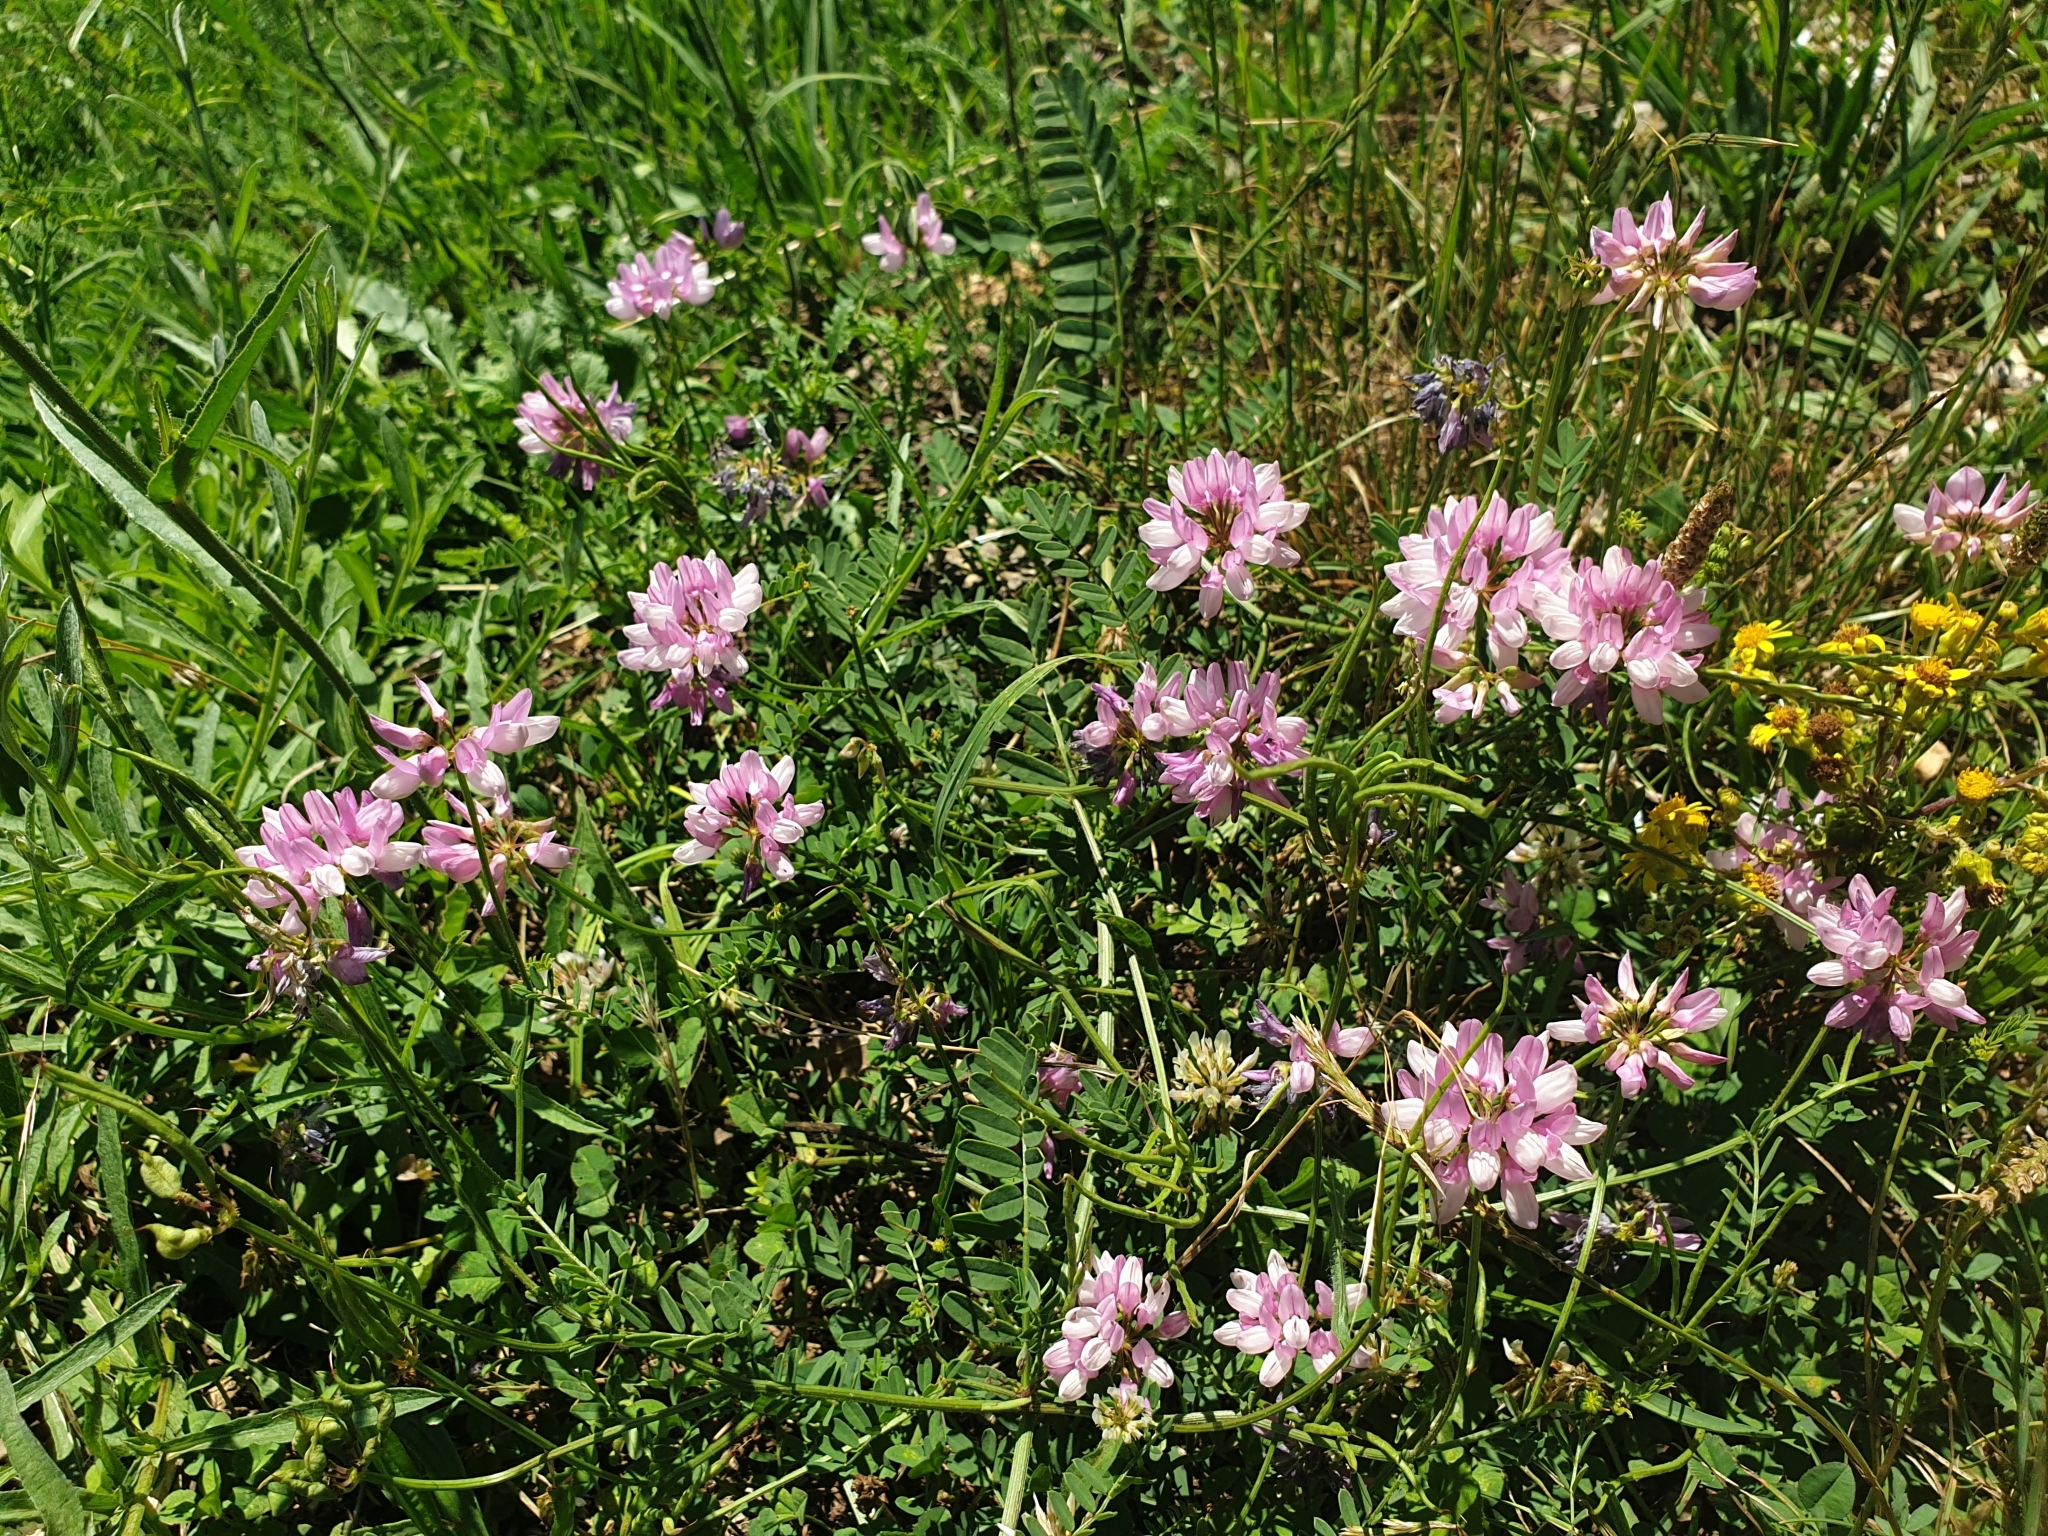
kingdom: Plantae
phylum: Tracheophyta
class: Magnoliopsida
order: Fabales
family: Fabaceae
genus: Coronilla
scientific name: Coronilla varia
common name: Crownvetch
